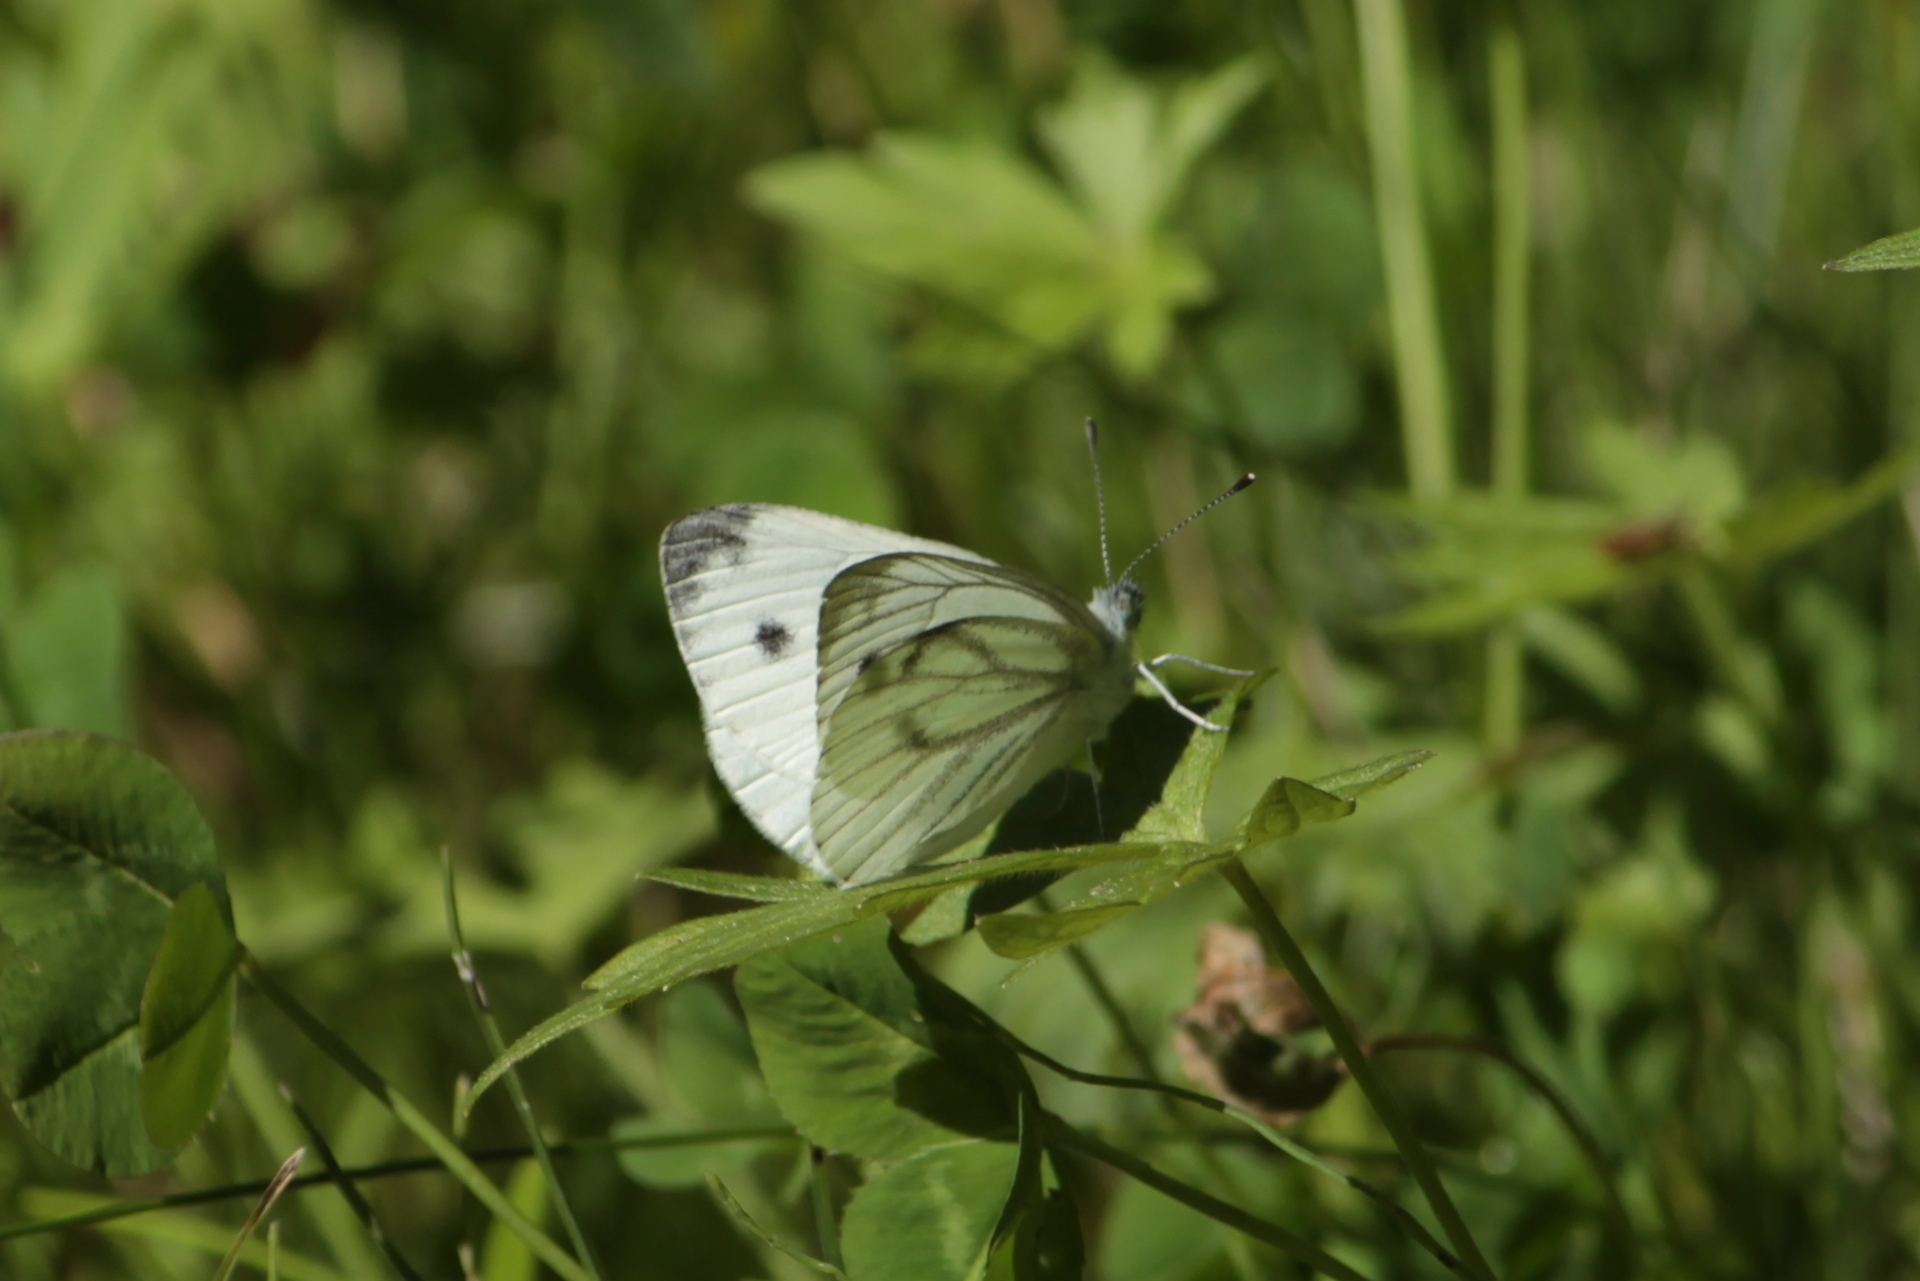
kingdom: Animalia
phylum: Arthropoda
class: Insecta
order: Lepidoptera
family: Pieridae
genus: Pieris
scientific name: Pieris napi
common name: Green-veined white
